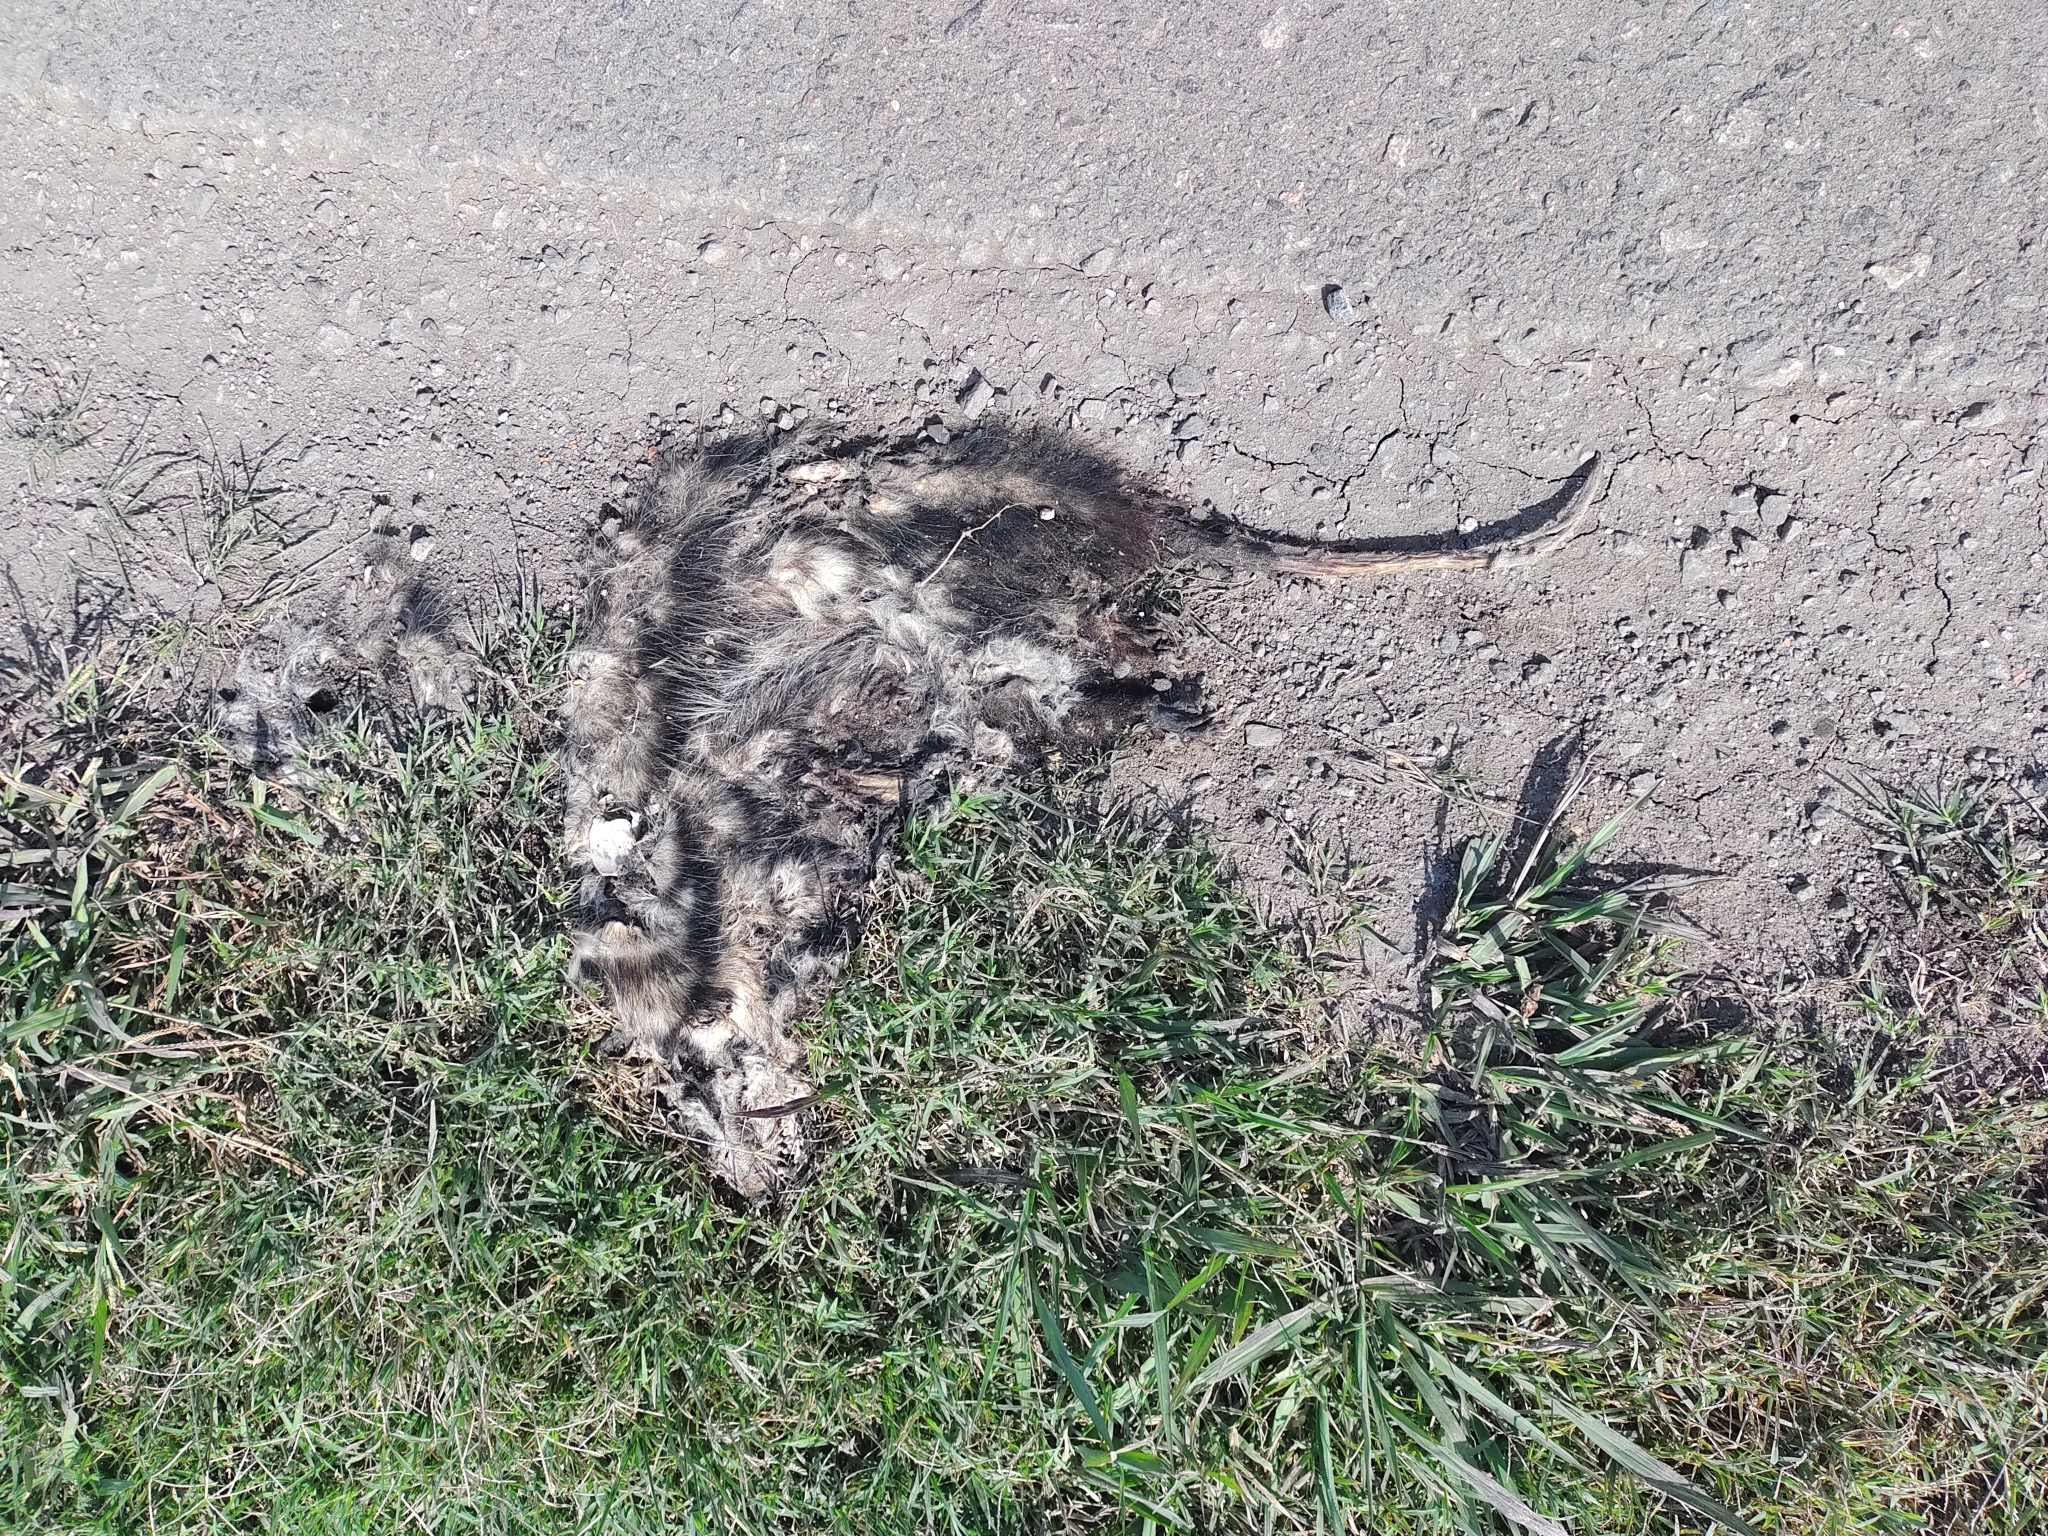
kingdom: Animalia
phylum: Chordata
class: Mammalia
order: Didelphimorphia
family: Didelphidae
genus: Didelphis
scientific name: Didelphis albiventris
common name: White-eared opossum
